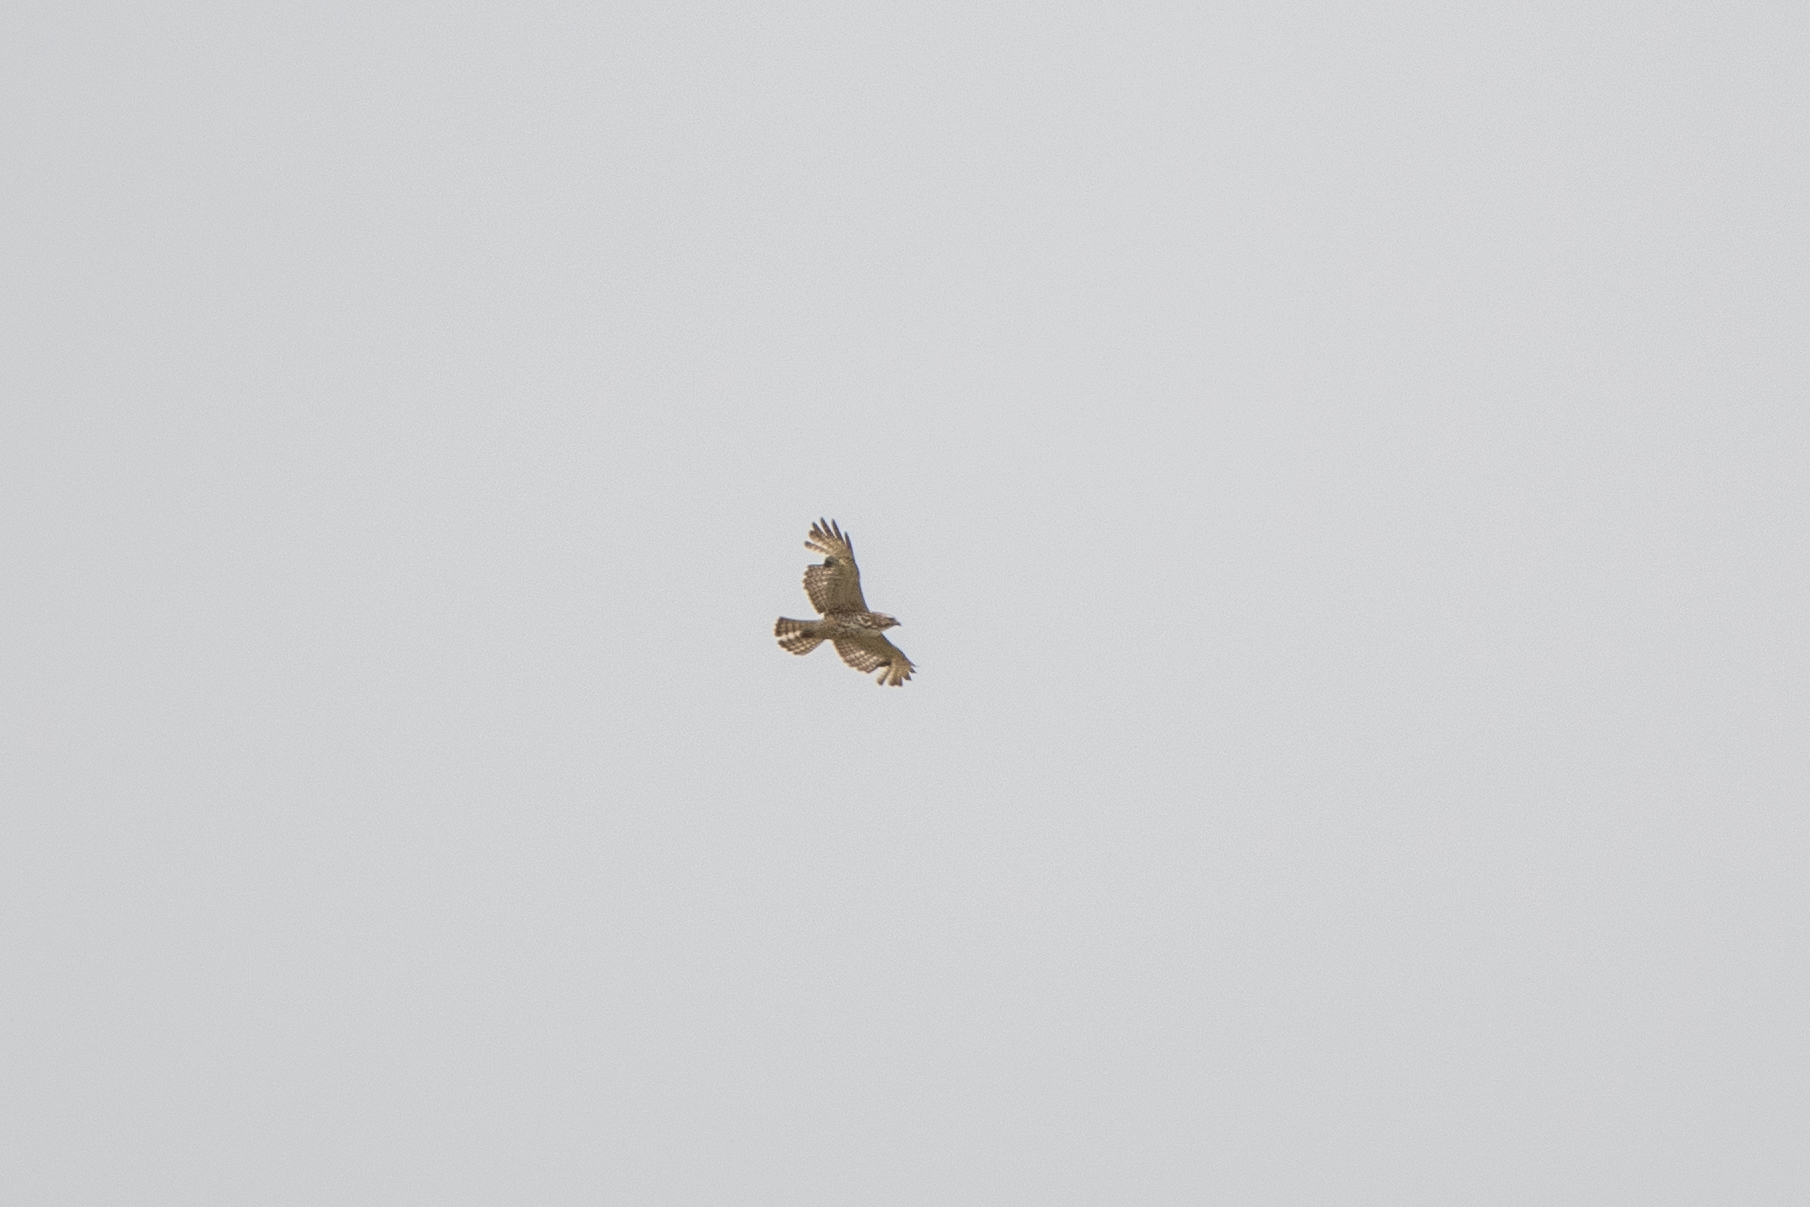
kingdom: Animalia
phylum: Chordata
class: Aves
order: Accipitriformes
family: Accipitridae
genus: Buteo
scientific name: Buteo lineatus
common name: Red-shouldered hawk
